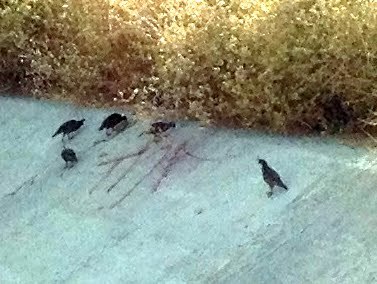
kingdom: Animalia
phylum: Chordata
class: Aves
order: Galliformes
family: Odontophoridae
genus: Callipepla
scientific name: Callipepla californica
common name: California quail
